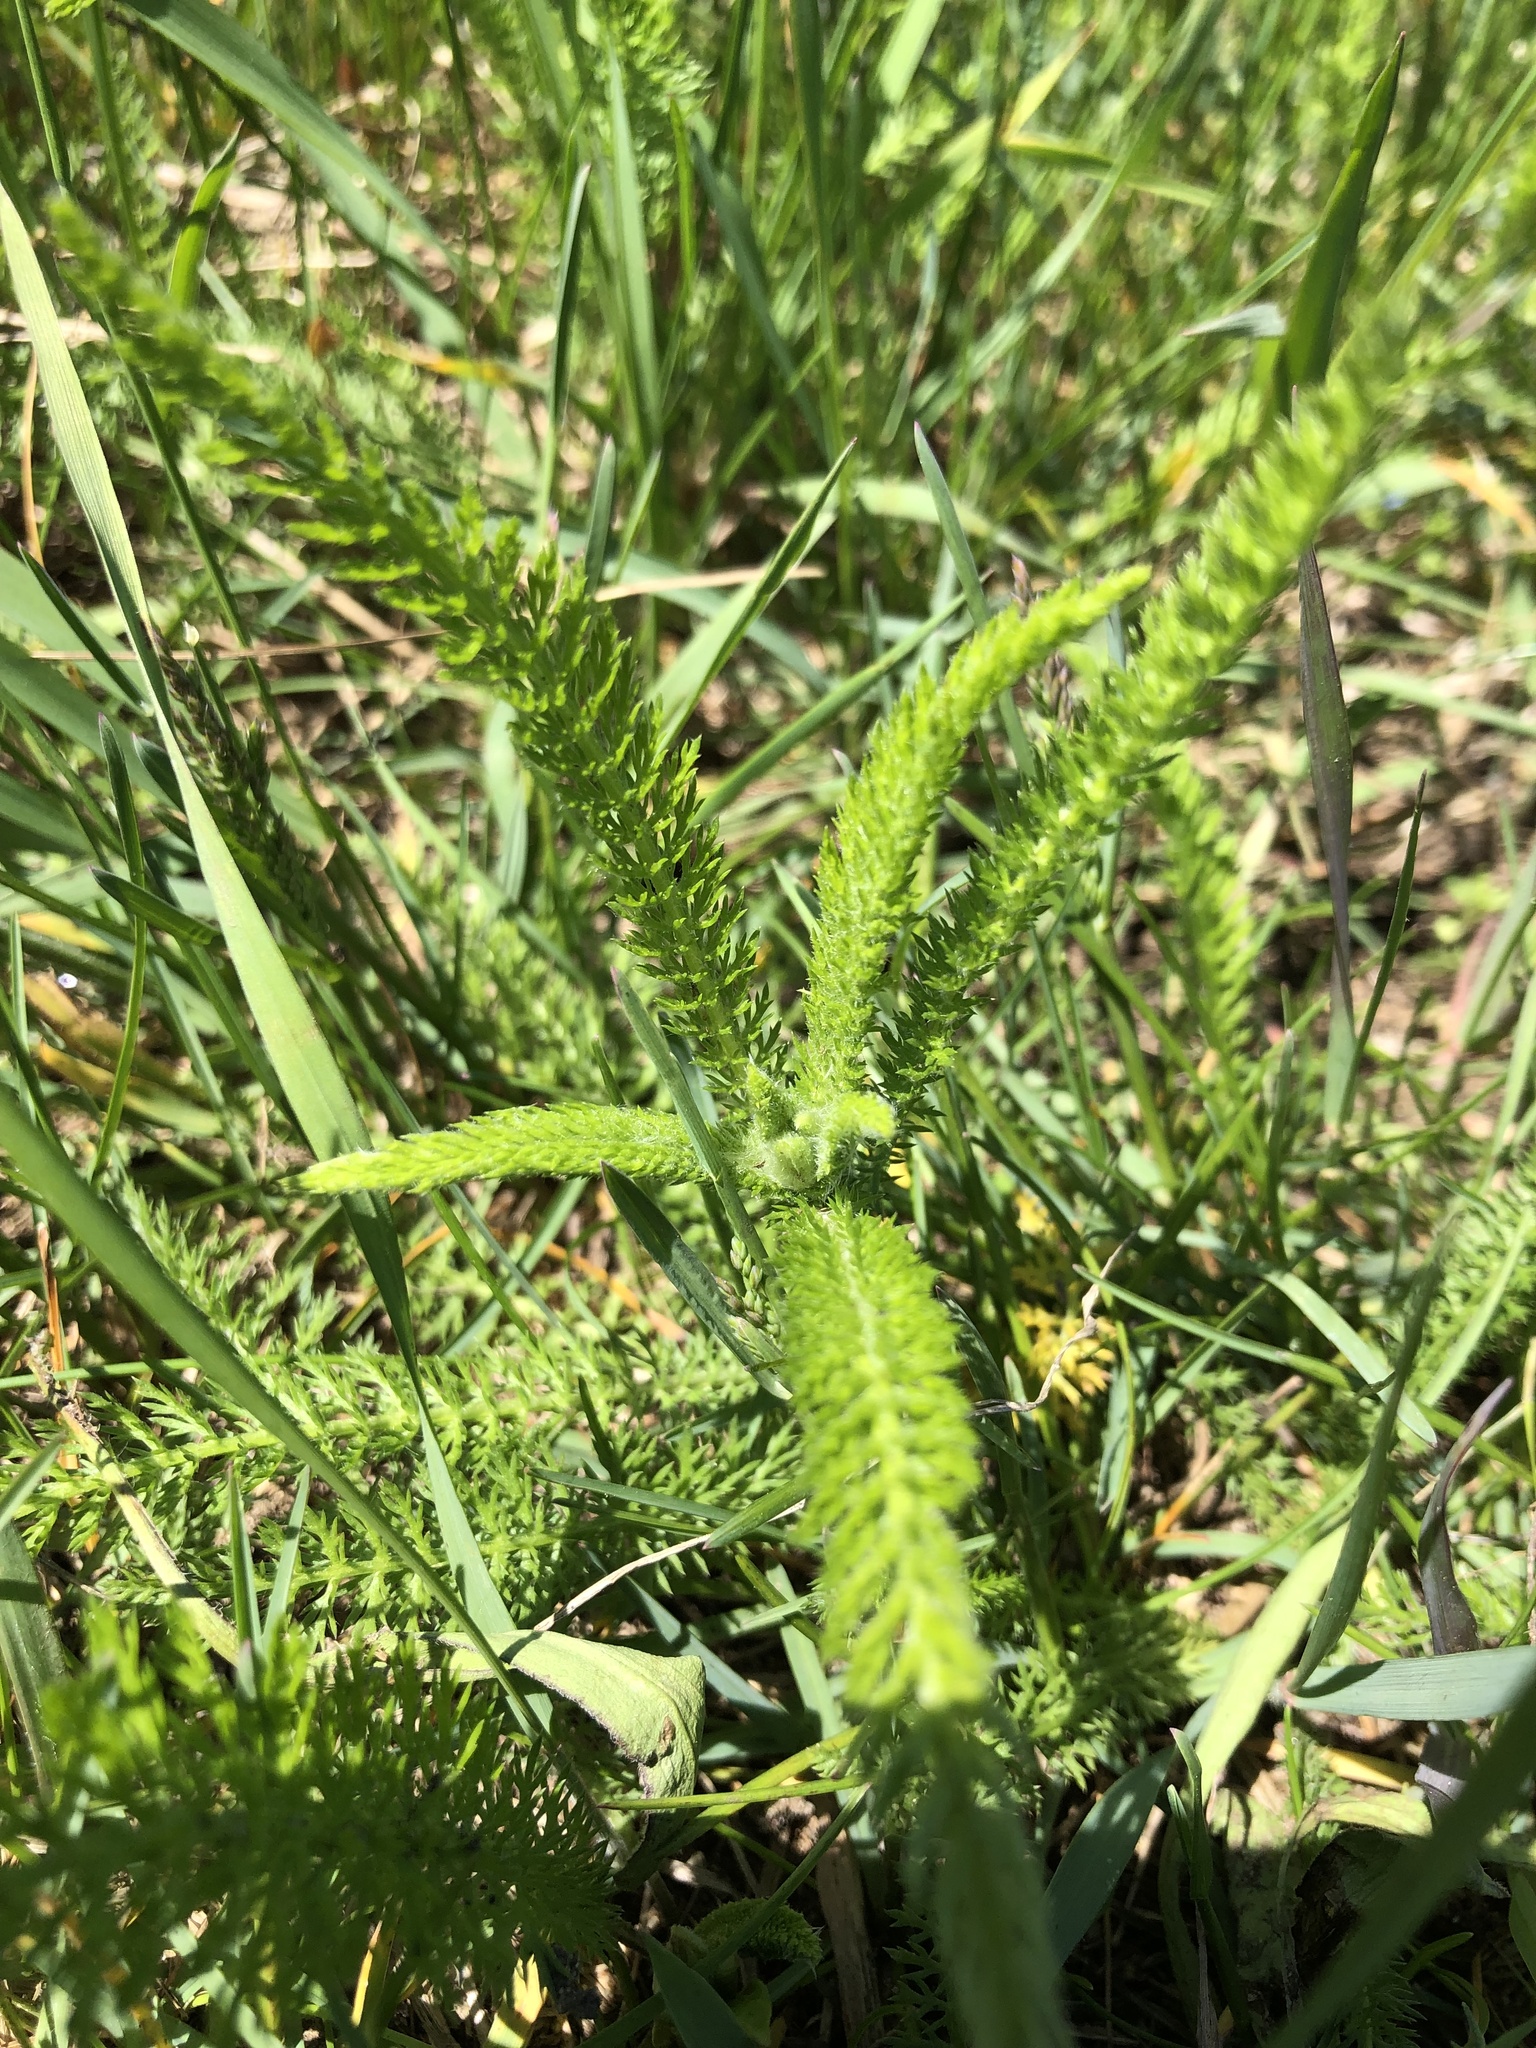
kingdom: Plantae
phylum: Tracheophyta
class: Magnoliopsida
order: Asterales
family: Asteraceae
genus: Achillea
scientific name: Achillea millefolium
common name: Yarrow
